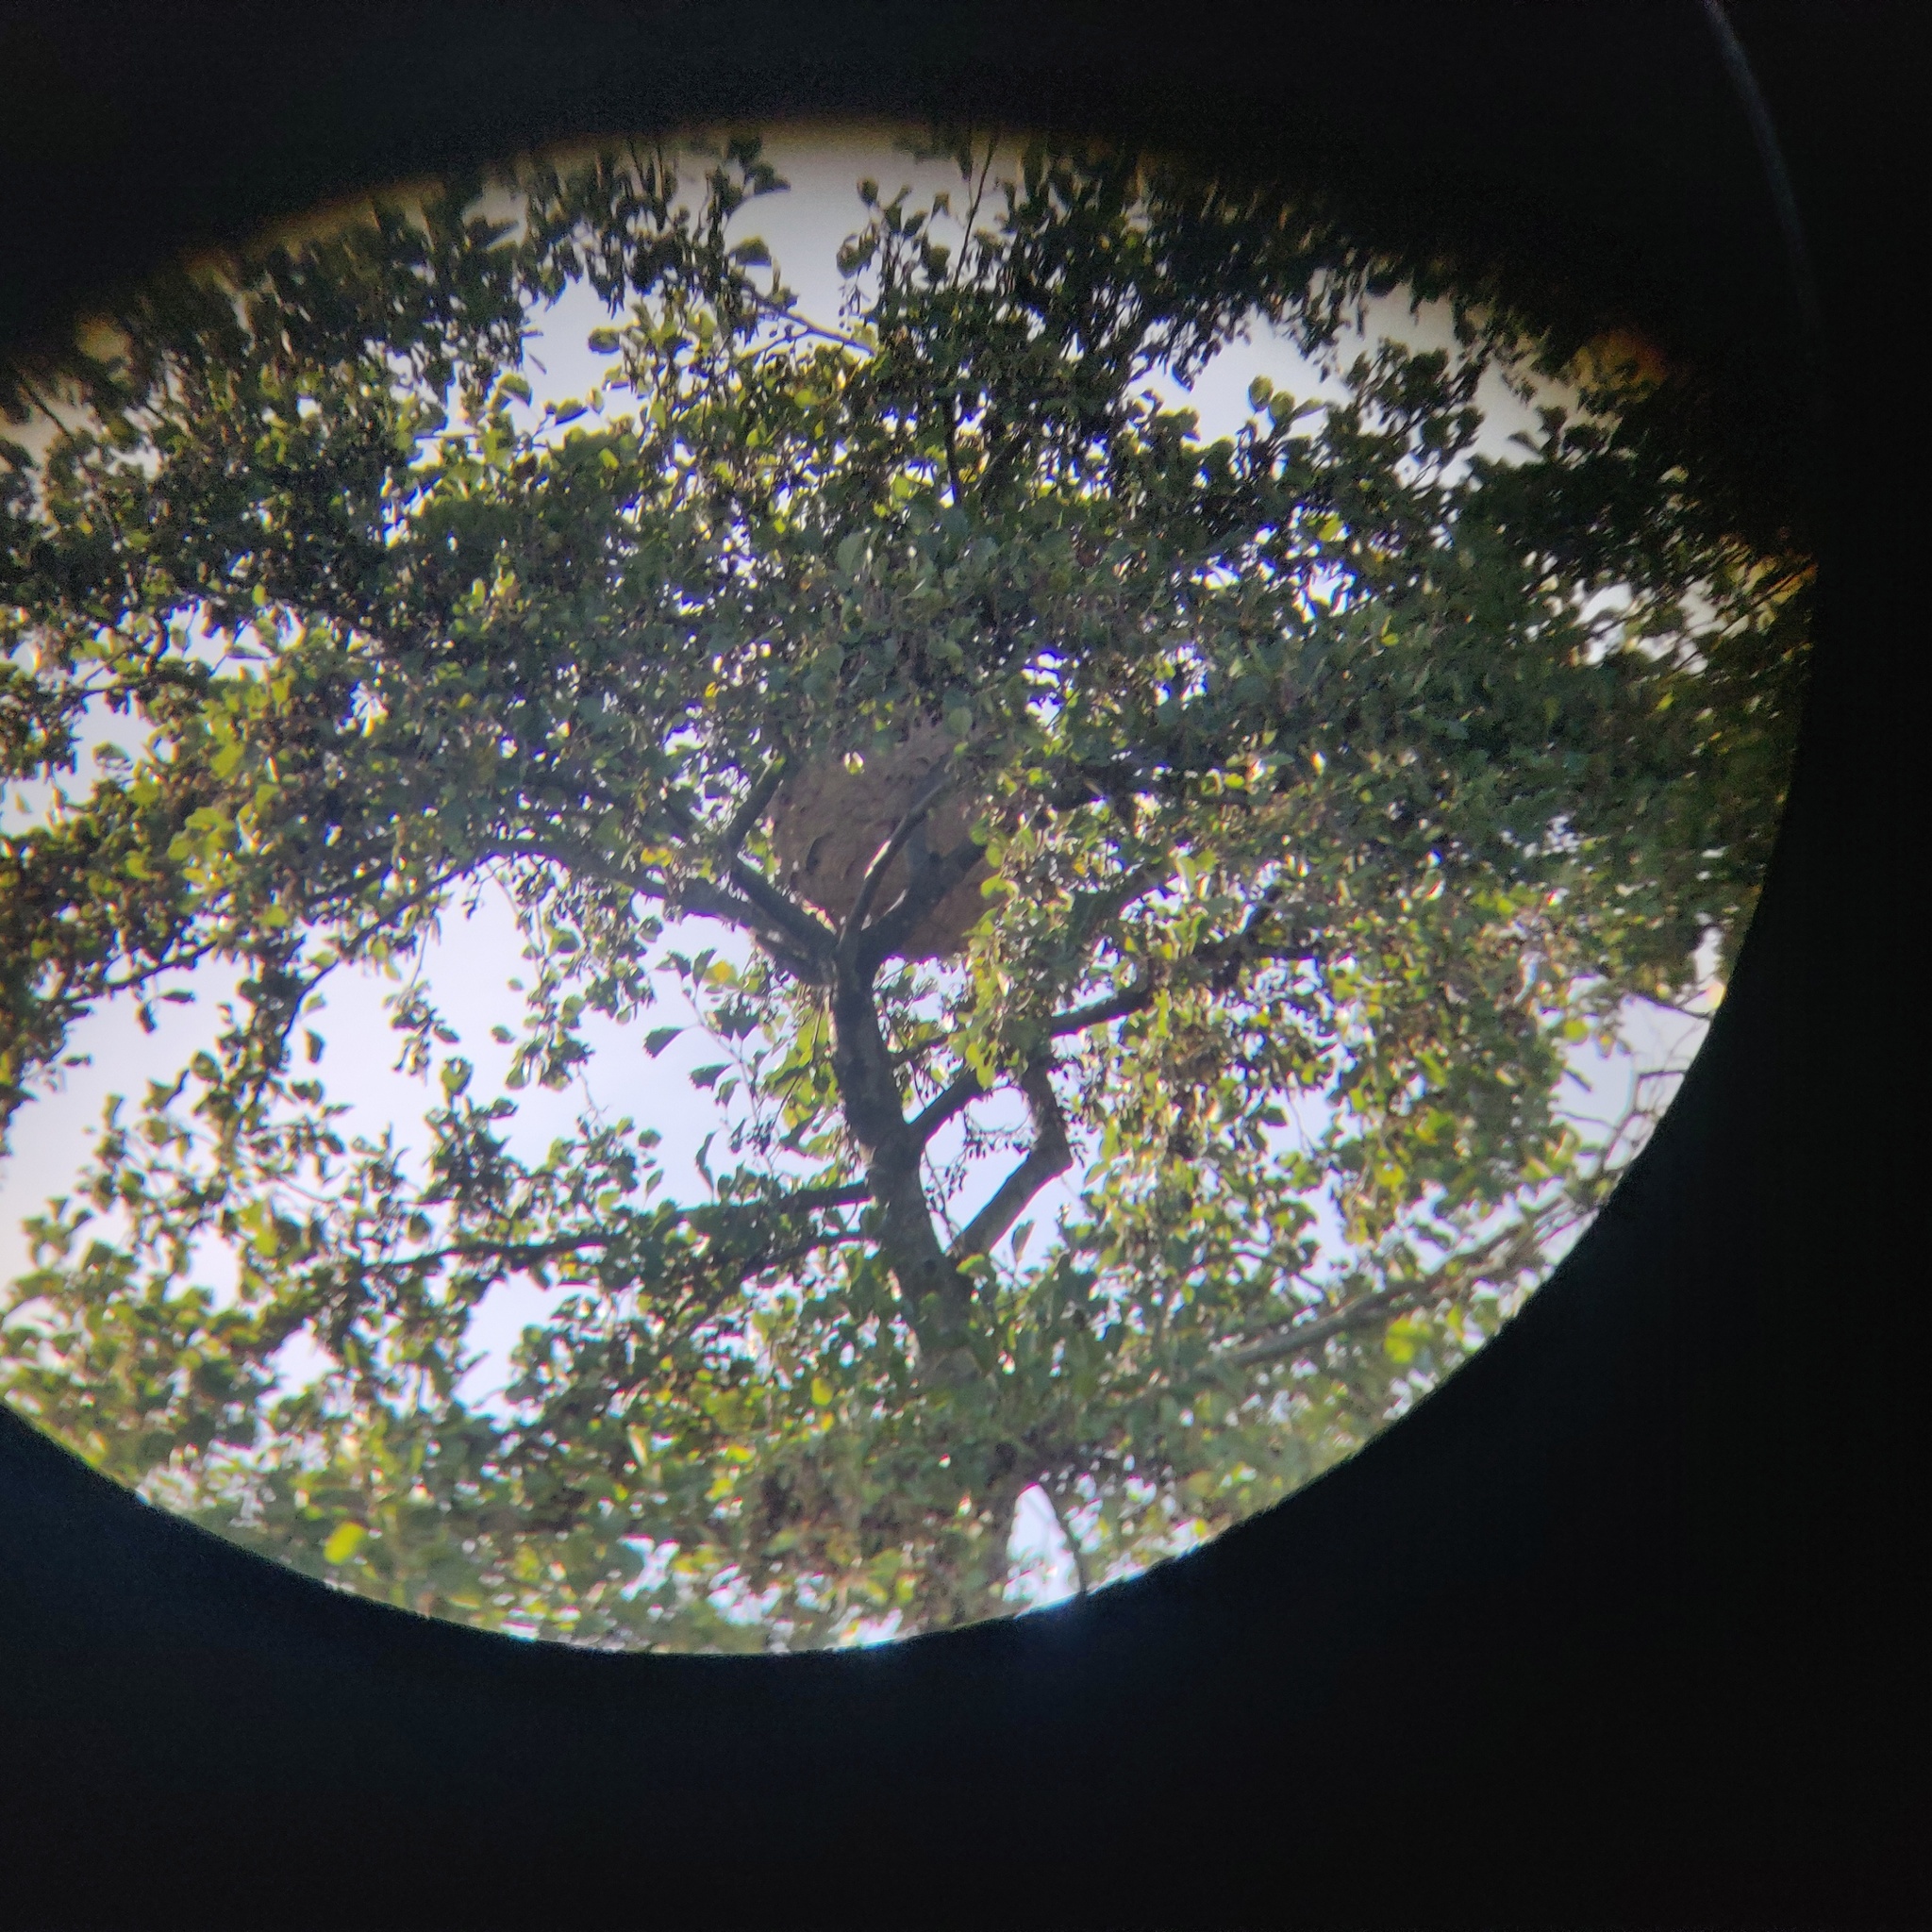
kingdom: Animalia
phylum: Arthropoda
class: Insecta
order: Hymenoptera
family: Vespidae
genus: Vespa
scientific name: Vespa velutina
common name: Asian hornet
